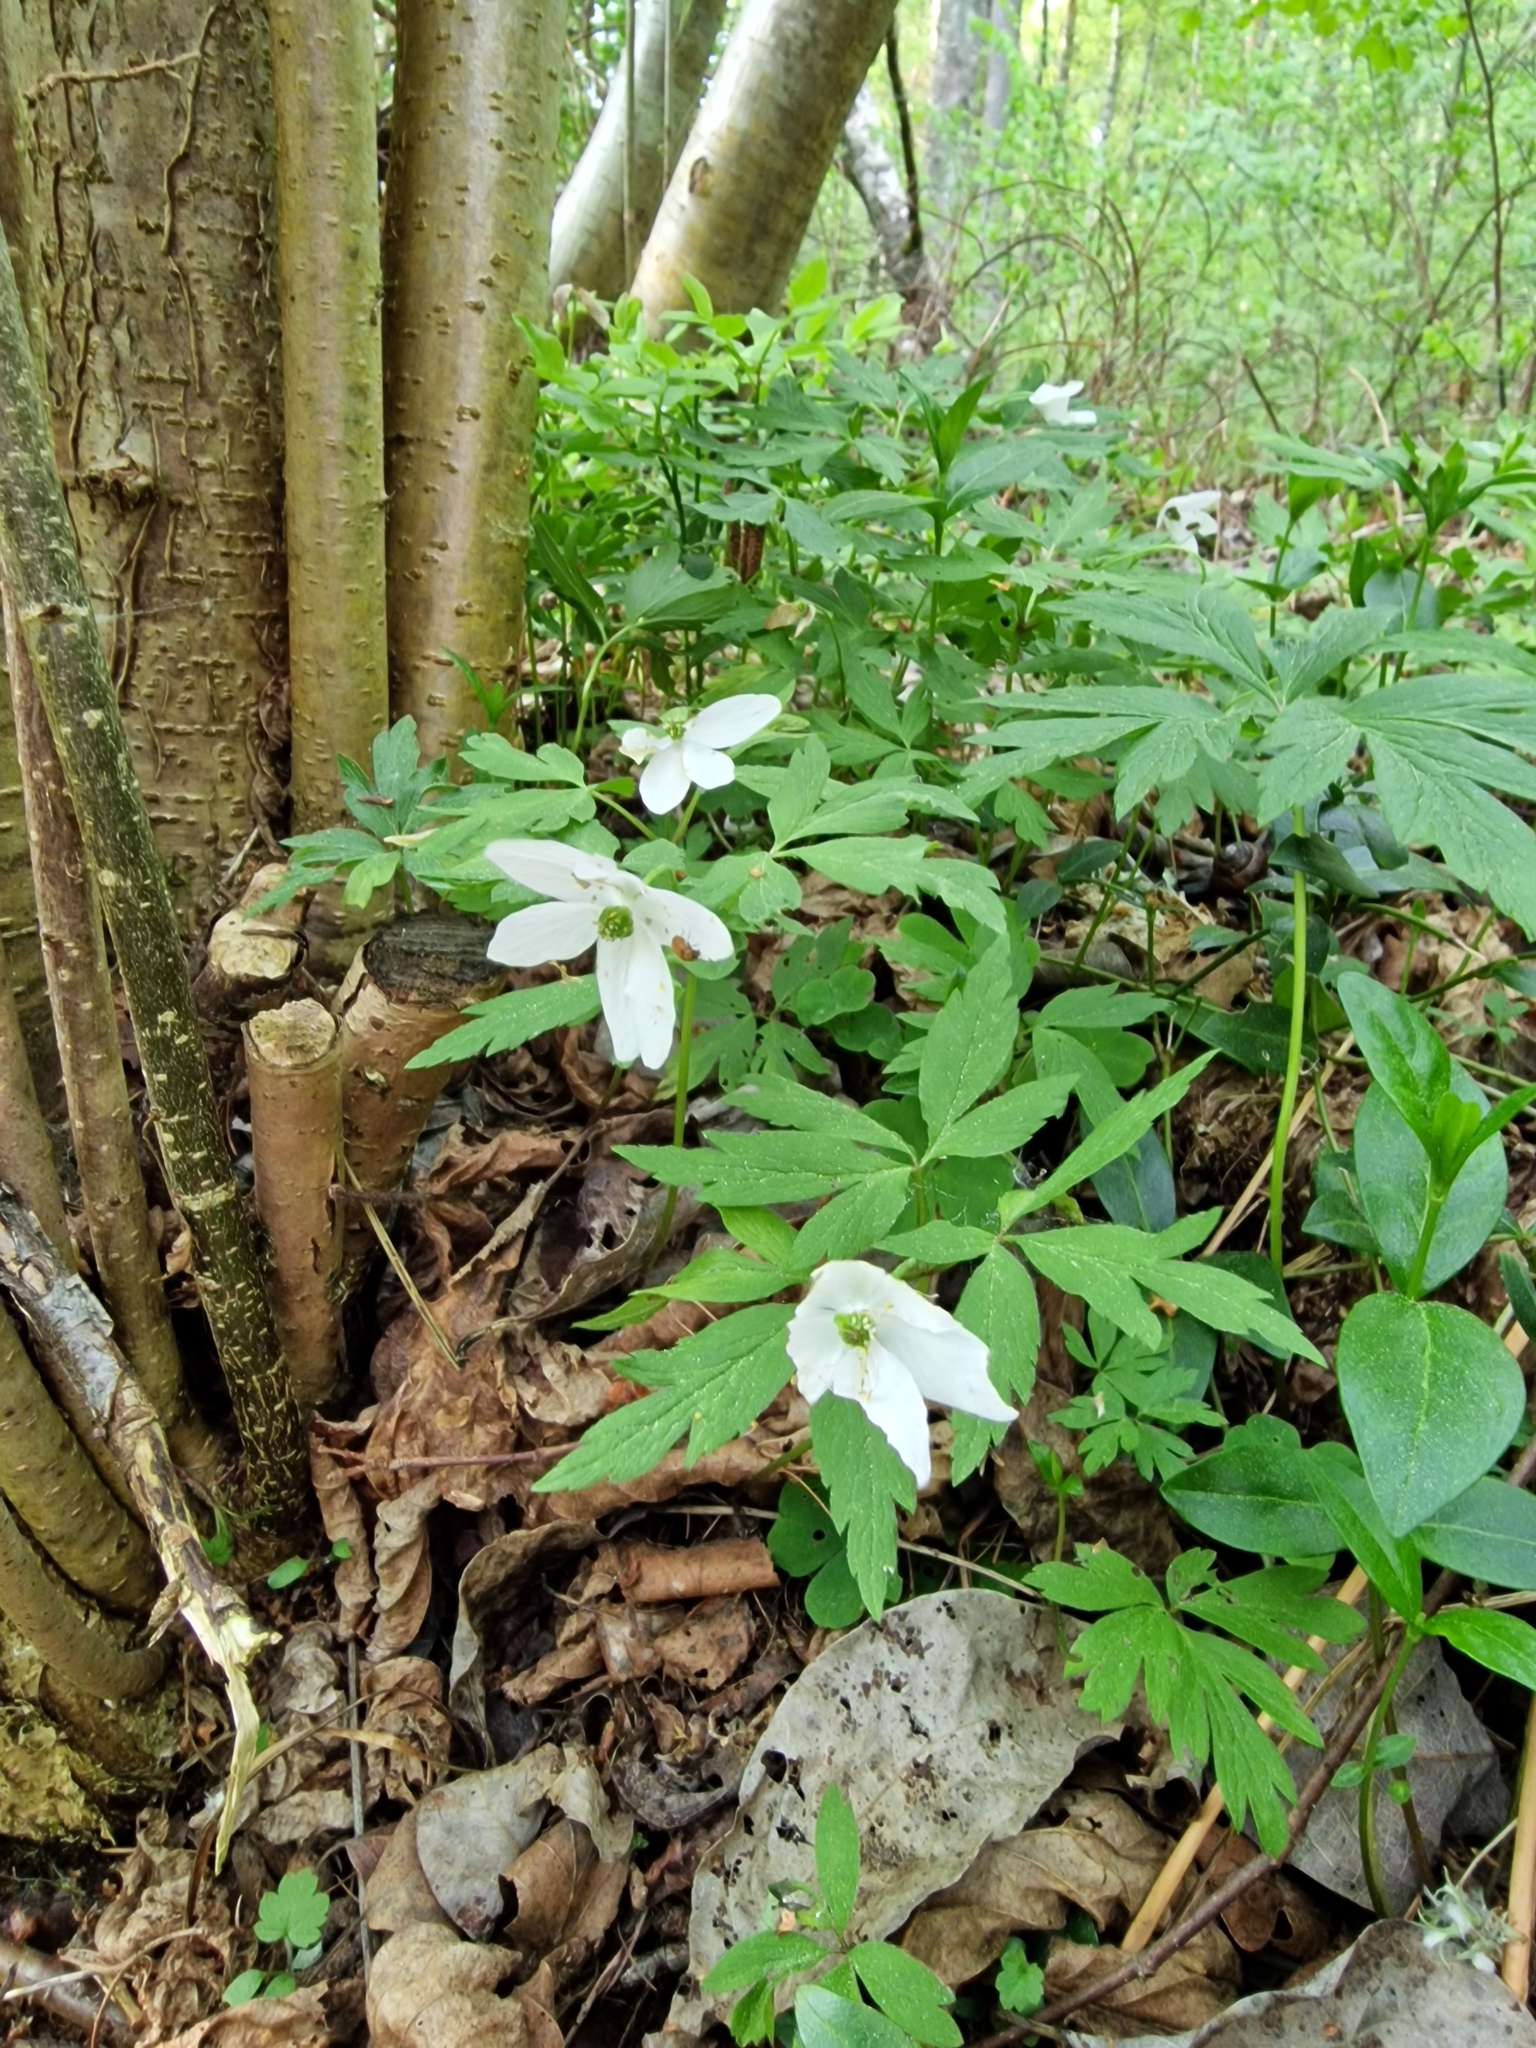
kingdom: Plantae
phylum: Tracheophyta
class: Magnoliopsida
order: Ranunculales
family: Ranunculaceae
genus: Anemone
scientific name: Anemone nemorosa
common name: Wood anemone
